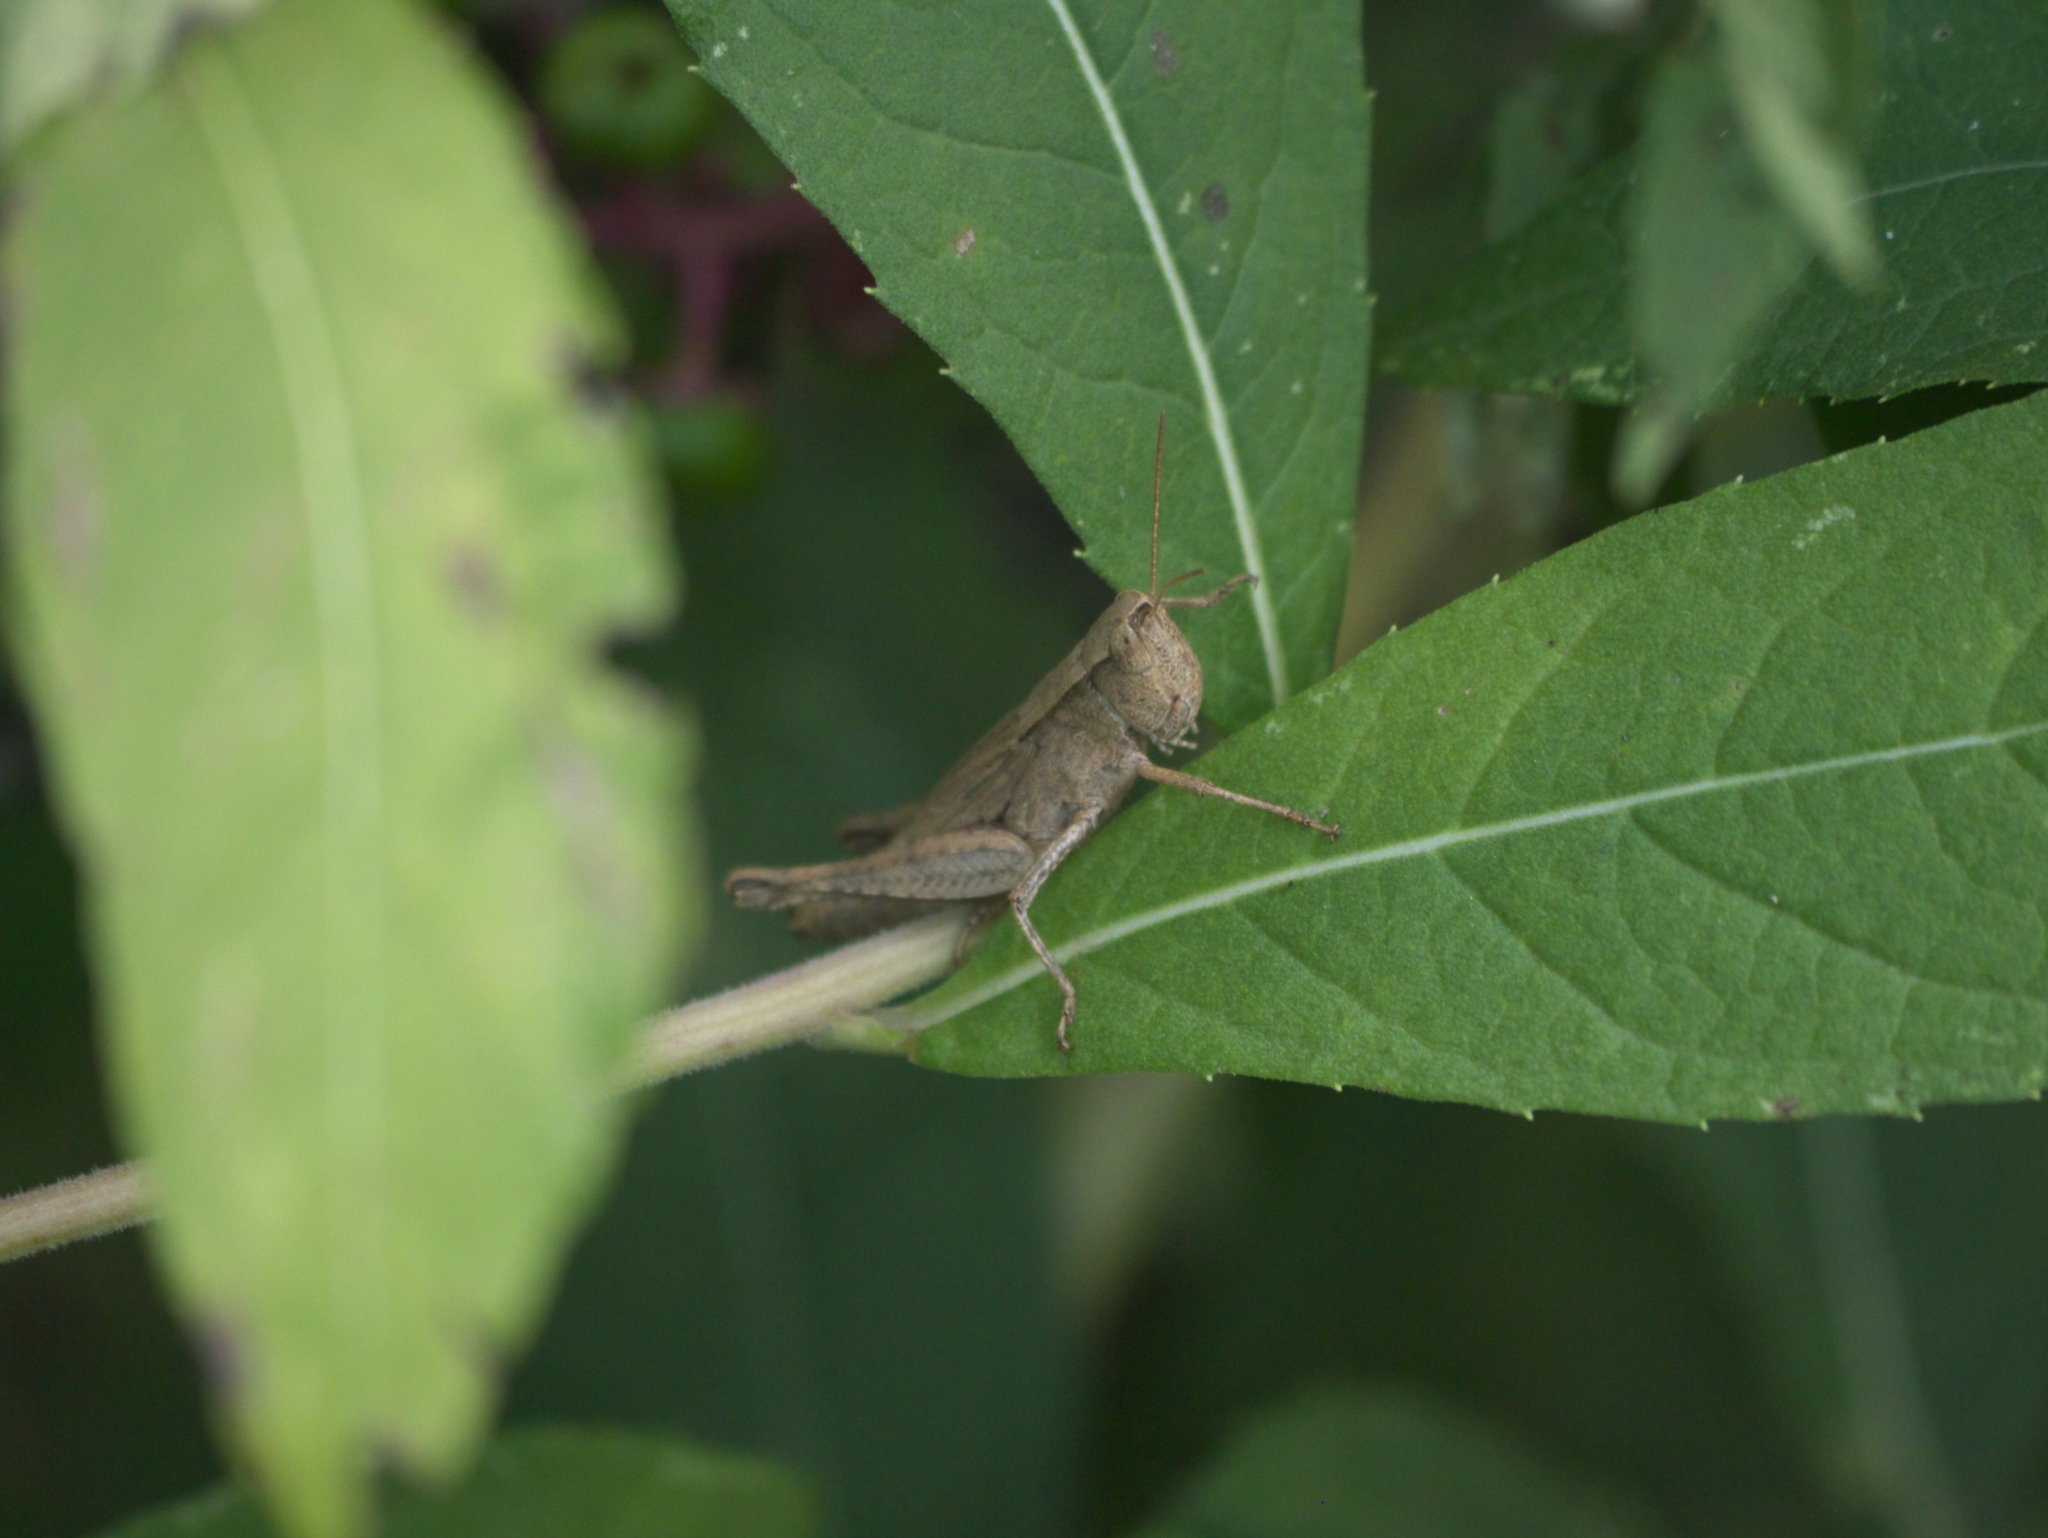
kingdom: Animalia
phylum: Arthropoda
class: Insecta
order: Orthoptera
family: Acrididae
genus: Dichromorpha
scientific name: Dichromorpha viridis
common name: Short-winged green grasshopper
